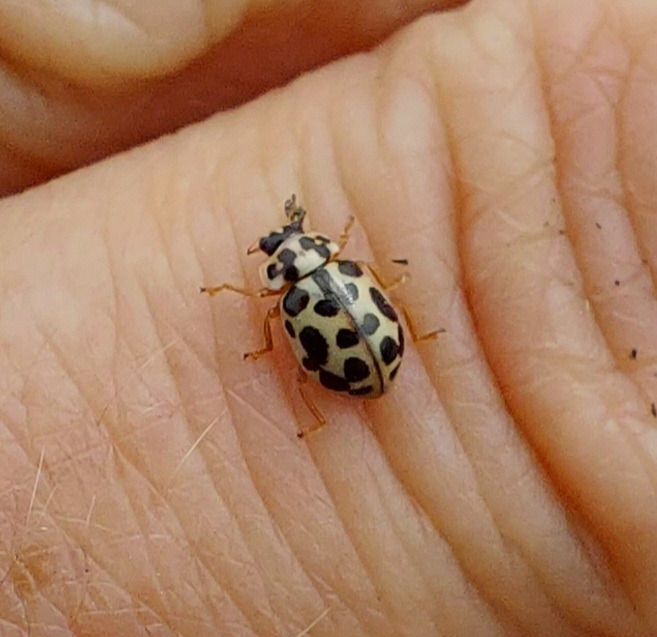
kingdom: Animalia
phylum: Arthropoda
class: Insecta
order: Coleoptera
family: Coccinellidae
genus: Anisosticta
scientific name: Anisosticta bitriangularis
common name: Marsh lady beetle
